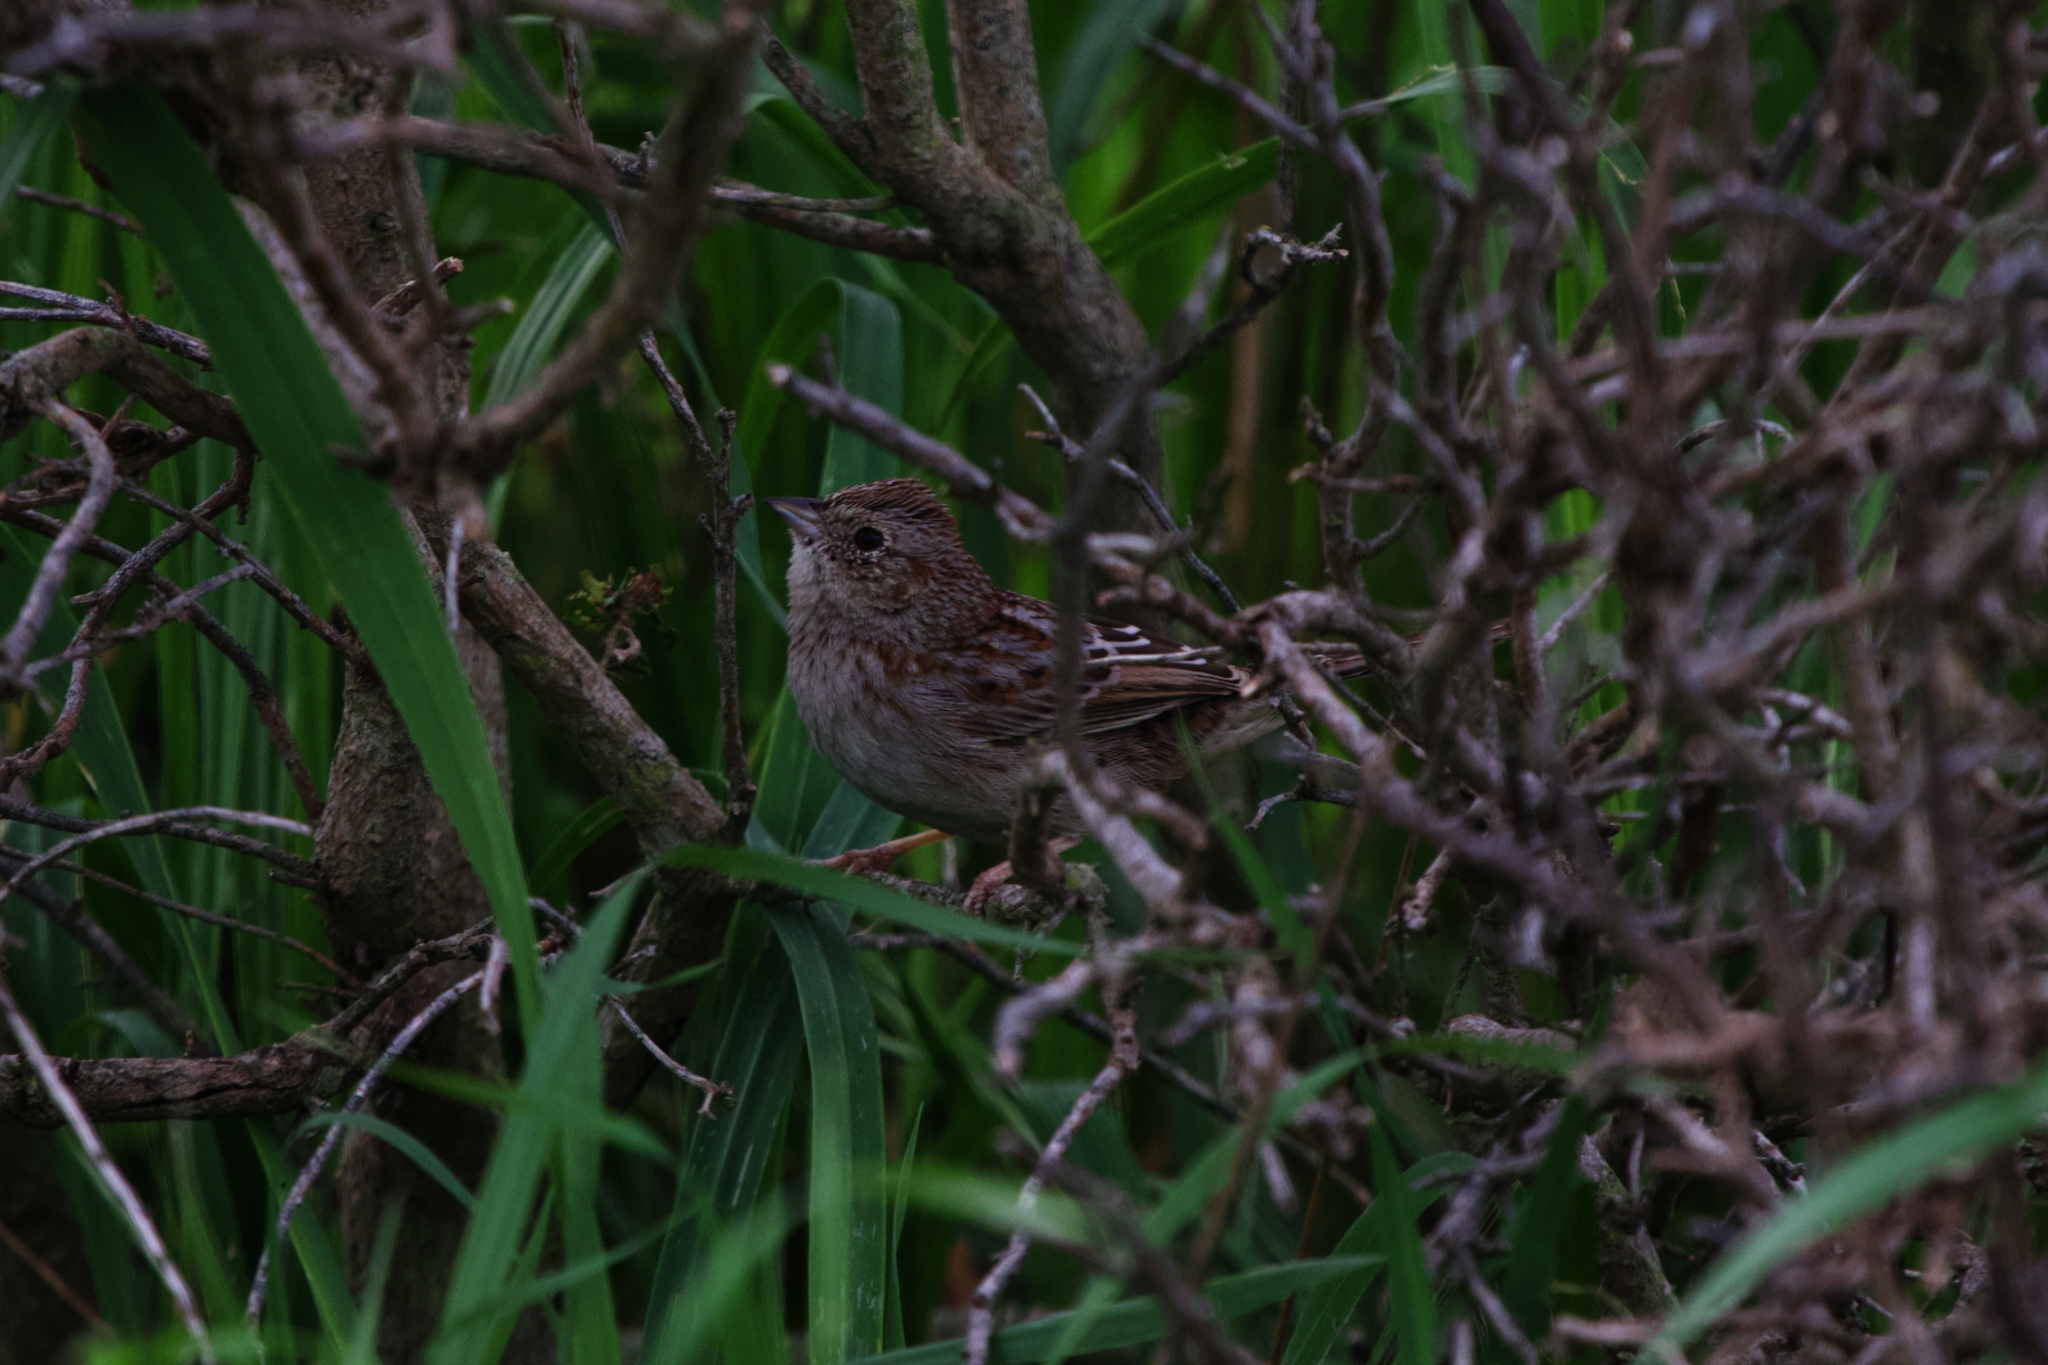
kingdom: Animalia
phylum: Chordata
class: Aves
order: Passeriformes
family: Passerellidae
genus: Peucaea
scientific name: Peucaea cassinii
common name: Cassin's sparrow
